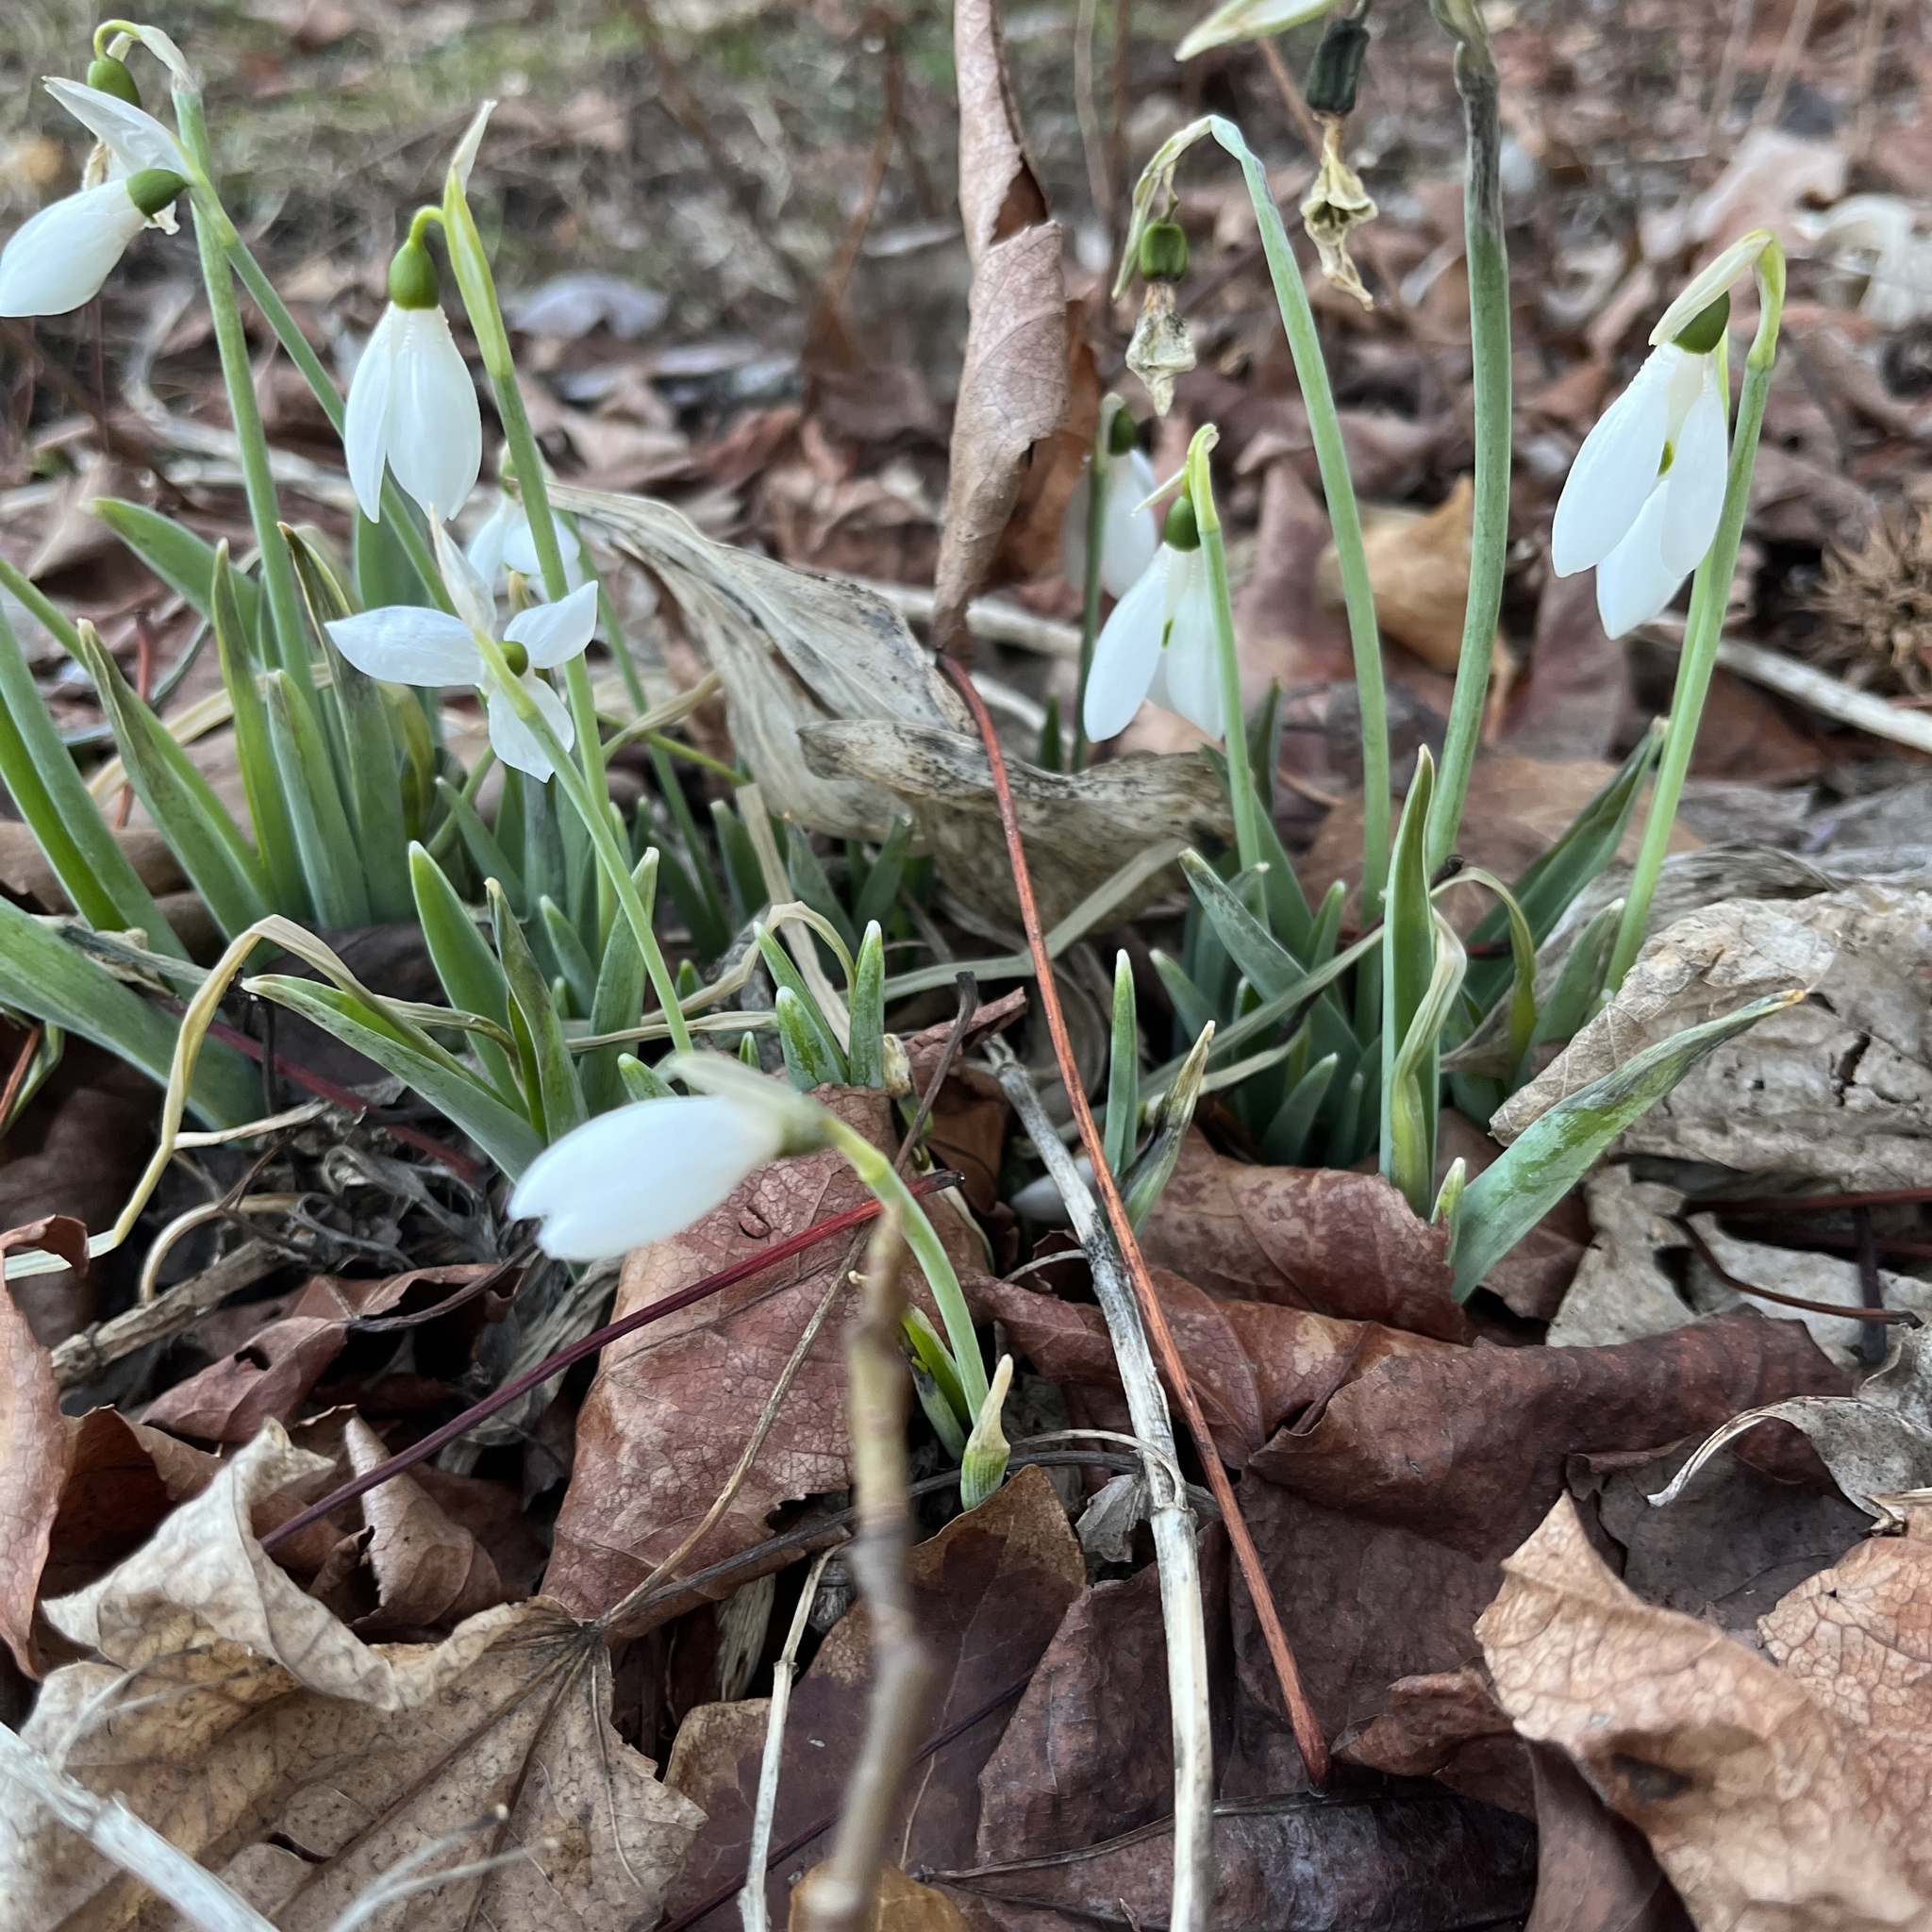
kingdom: Plantae
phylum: Tracheophyta
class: Liliopsida
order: Asparagales
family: Amaryllidaceae
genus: Galanthus
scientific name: Galanthus nivalis
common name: Snowdrop
